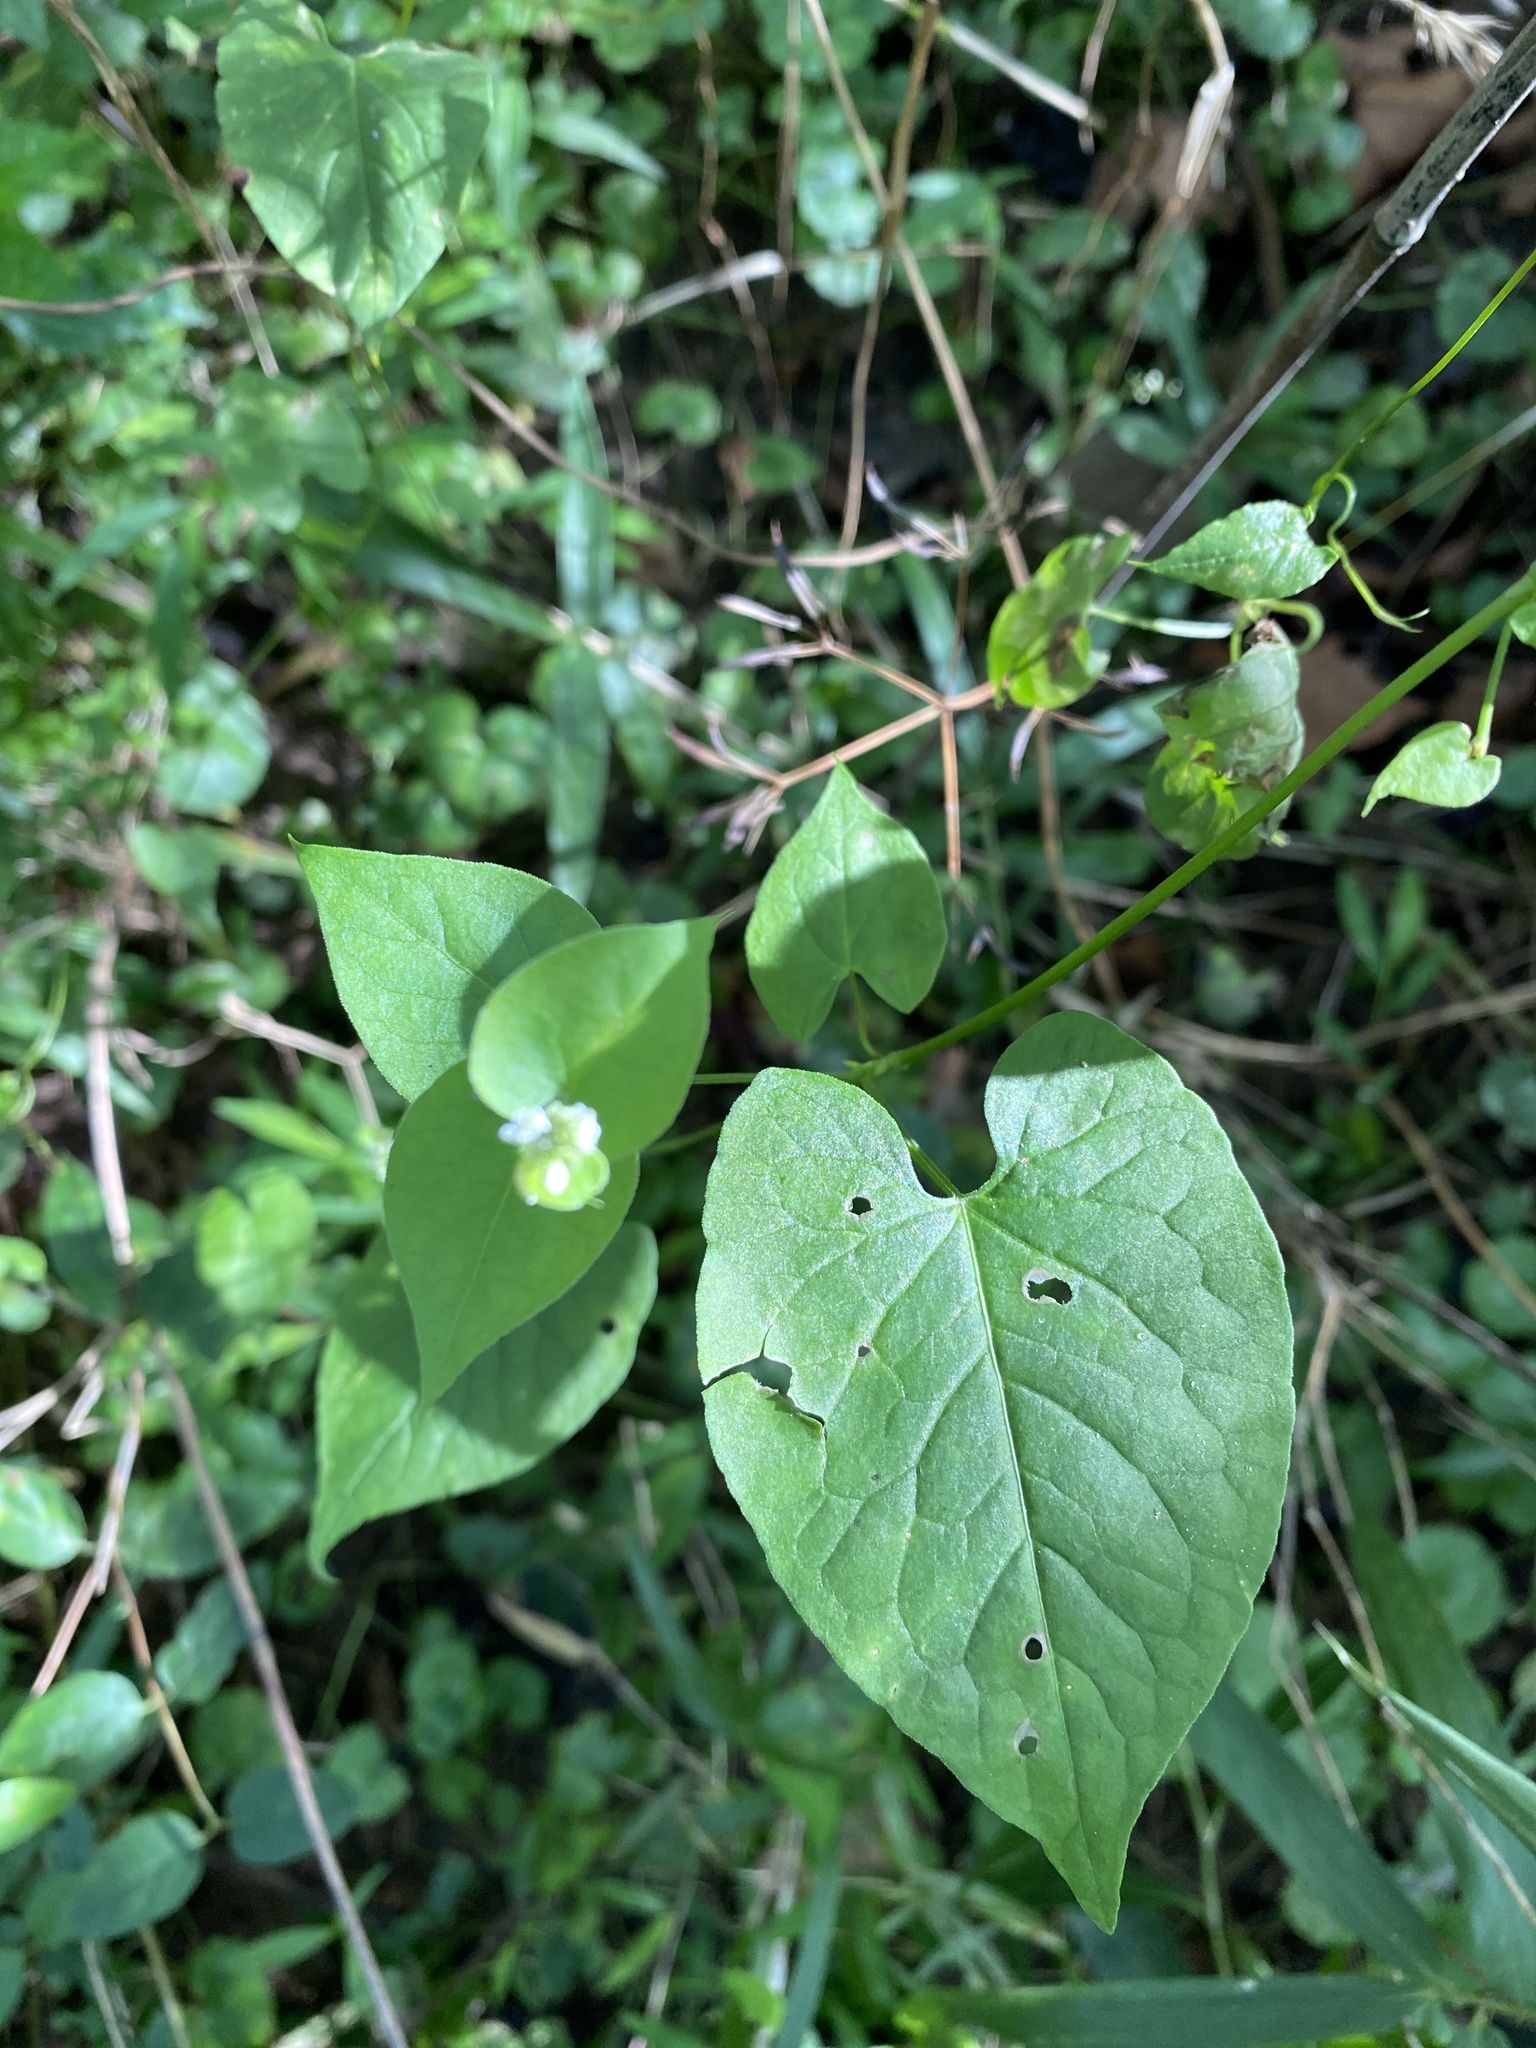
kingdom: Plantae
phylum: Tracheophyta
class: Magnoliopsida
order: Caryophyllales
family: Polygonaceae
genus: Fallopia
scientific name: Fallopia scandens
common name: Climbing false buckwheat
